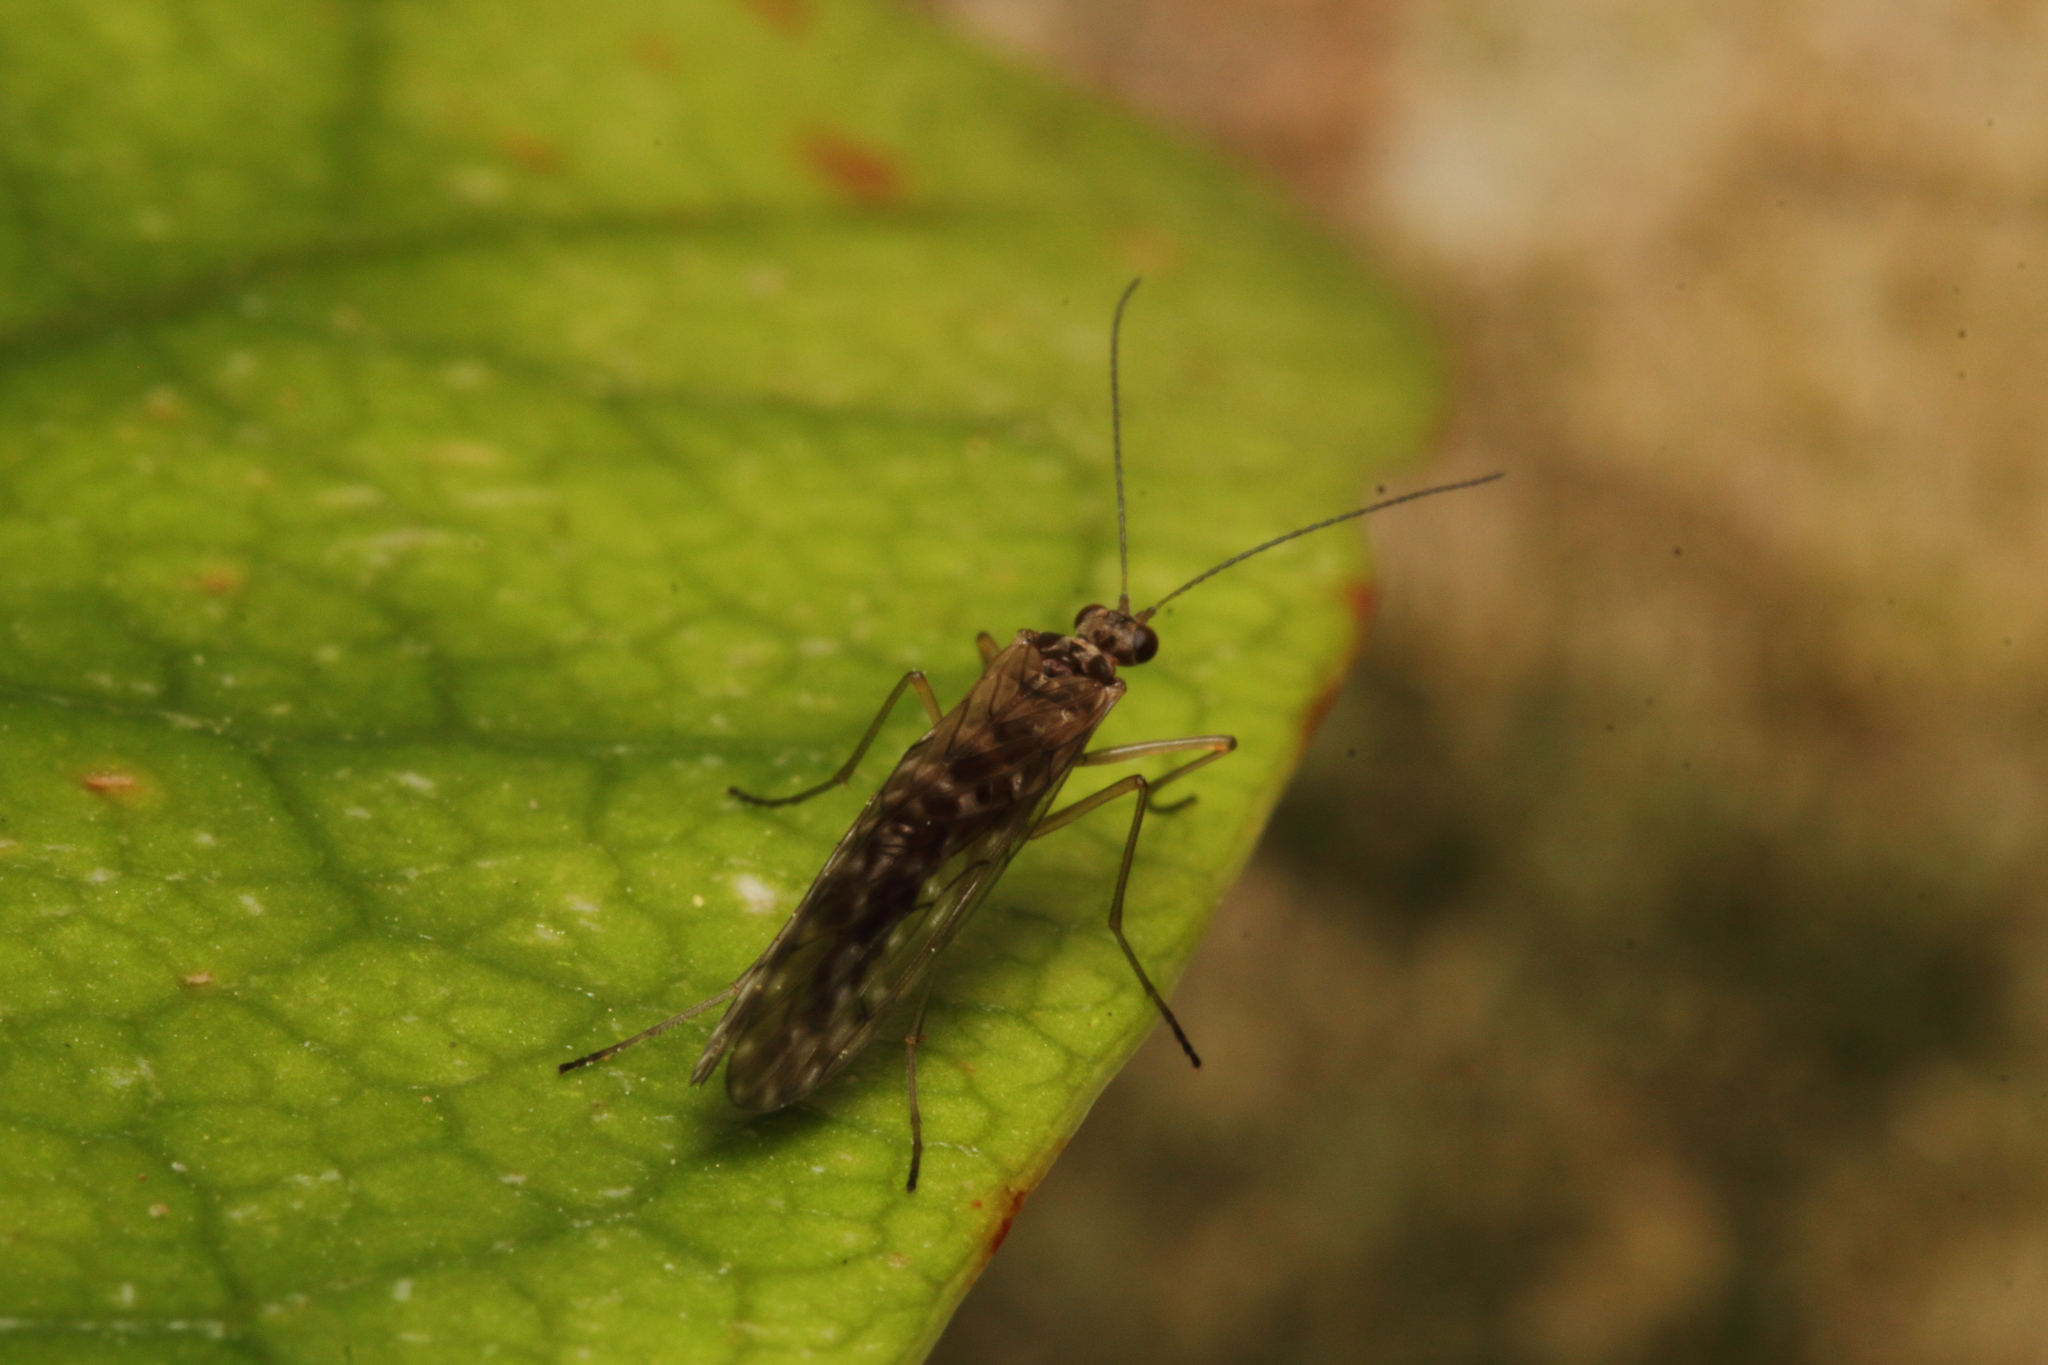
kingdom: Animalia
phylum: Arthropoda
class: Insecta
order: Mecoptera
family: Nannochoristidae
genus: Nannochorista
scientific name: Nannochorista philpotti
